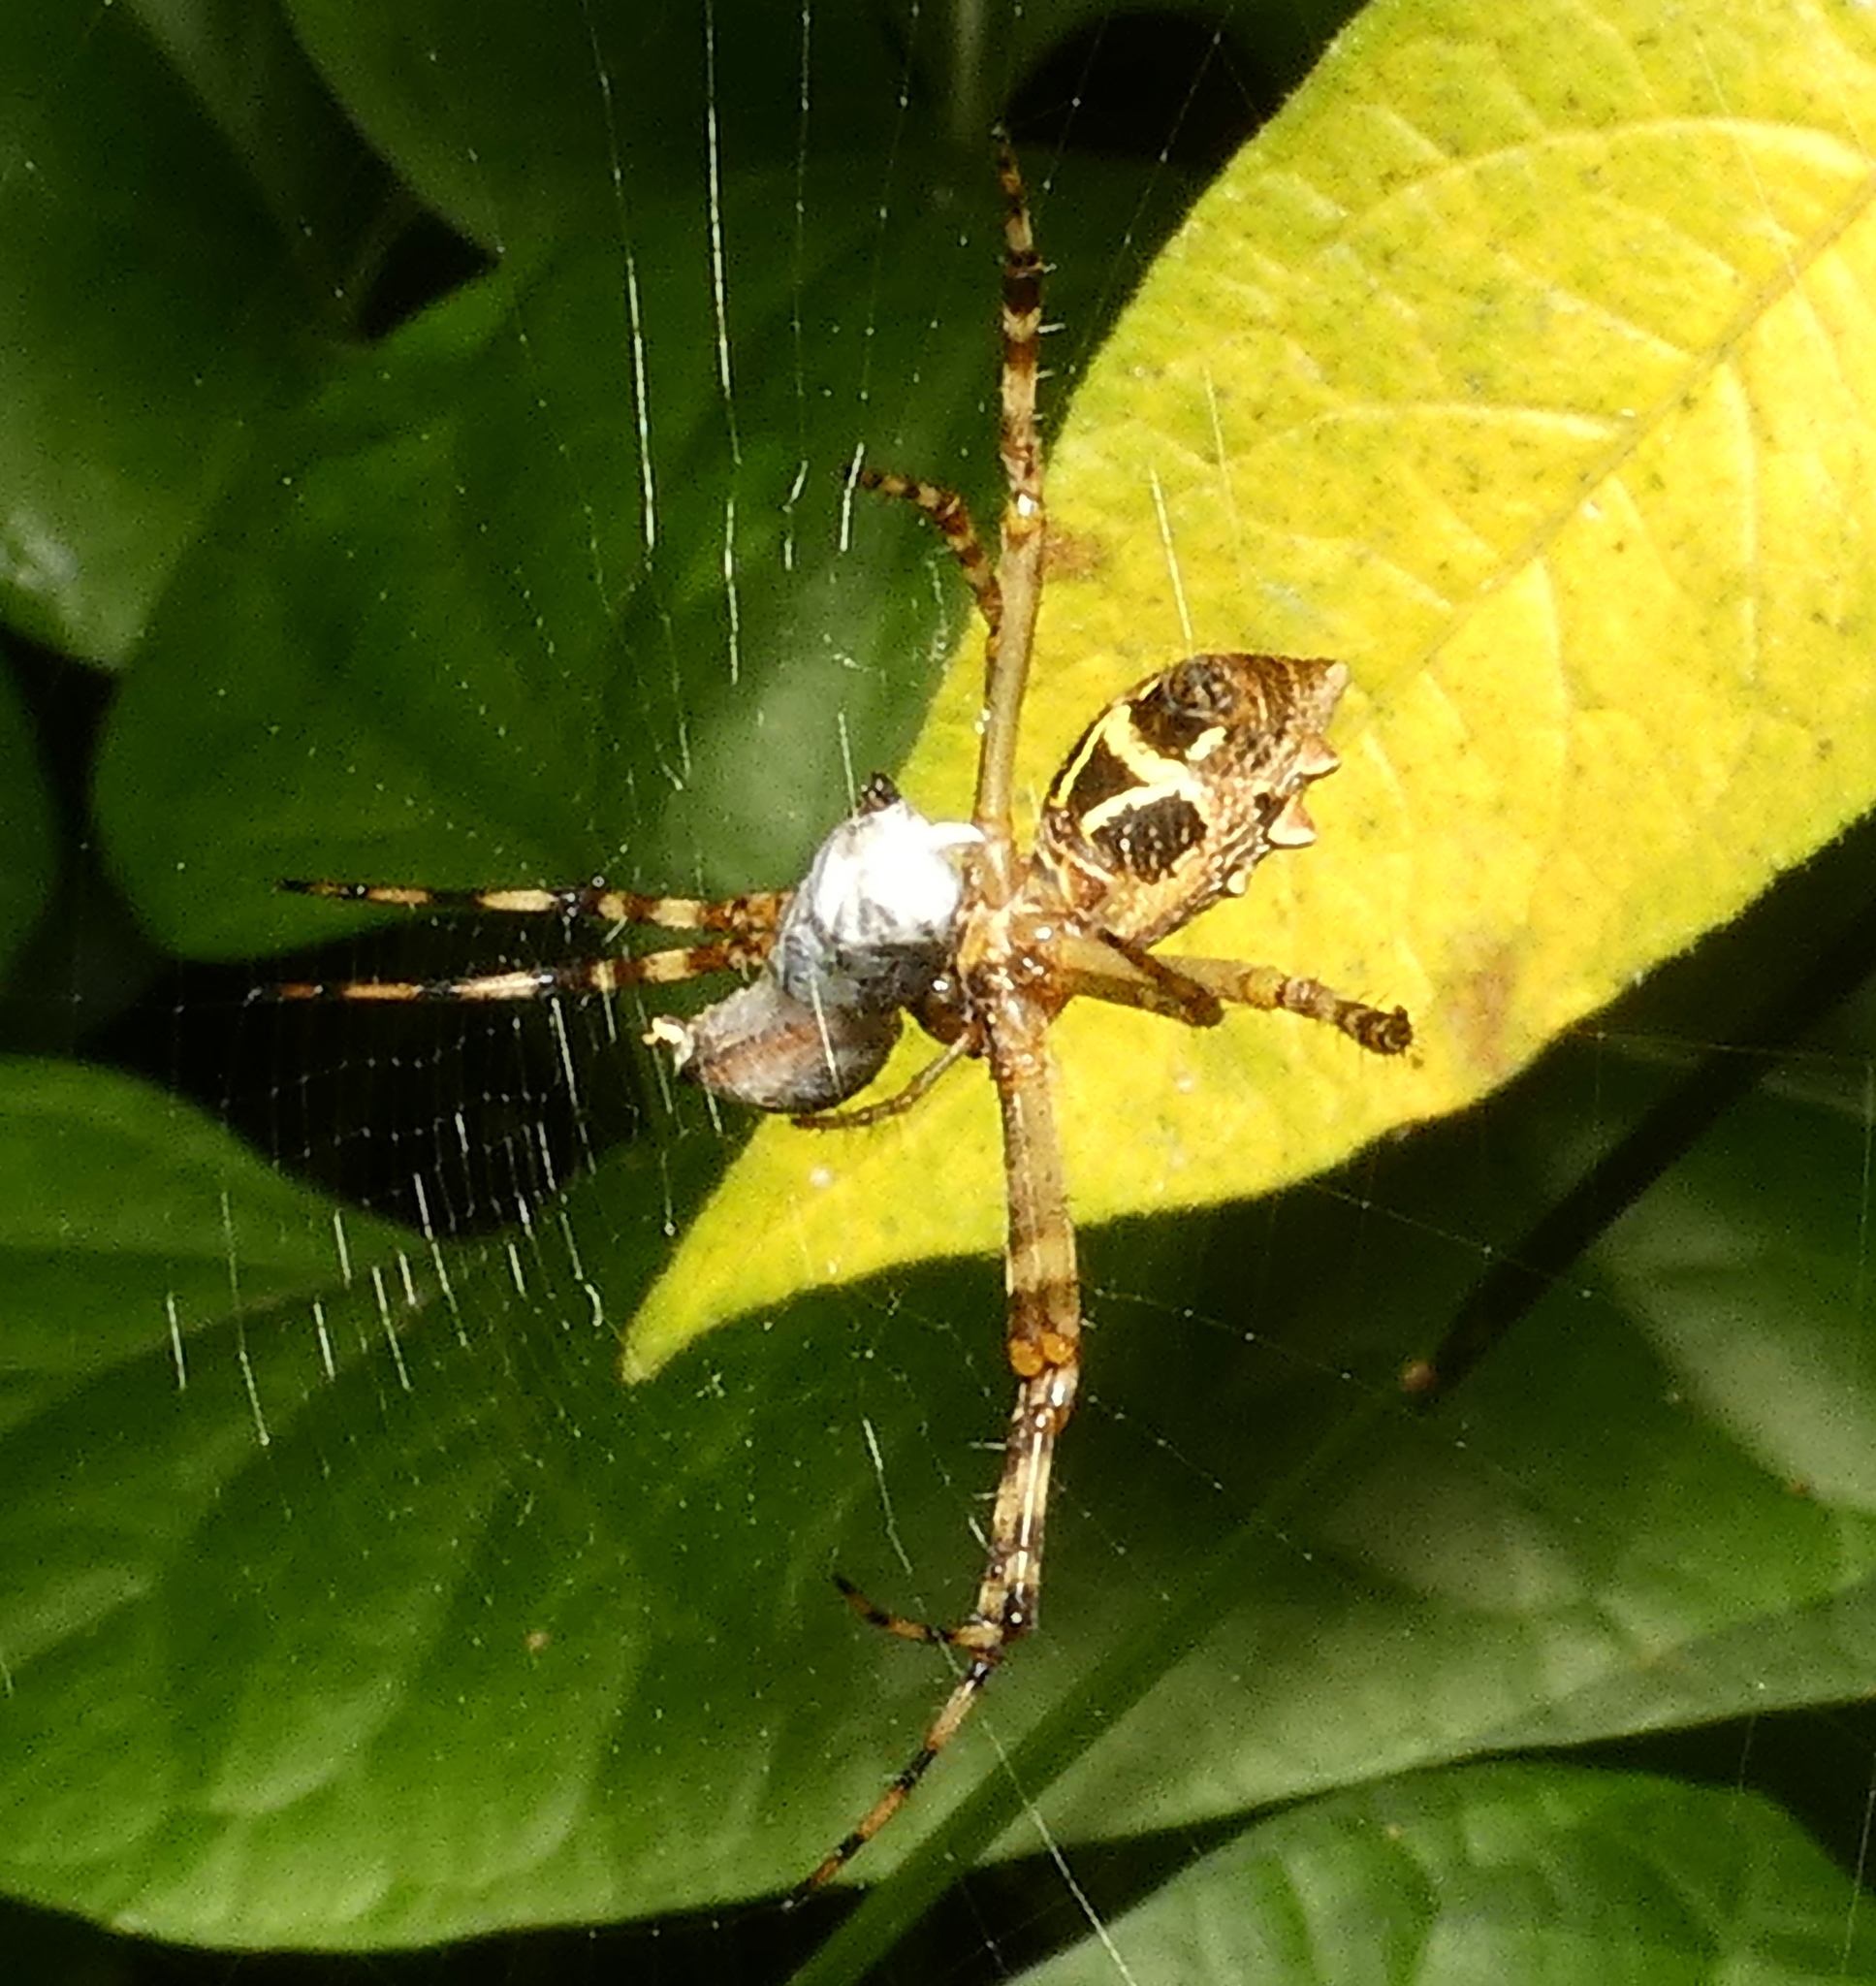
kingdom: Animalia
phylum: Arthropoda
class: Arachnida
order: Araneae
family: Araneidae
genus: Argiope
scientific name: Argiope argentata
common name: Orb weavers
